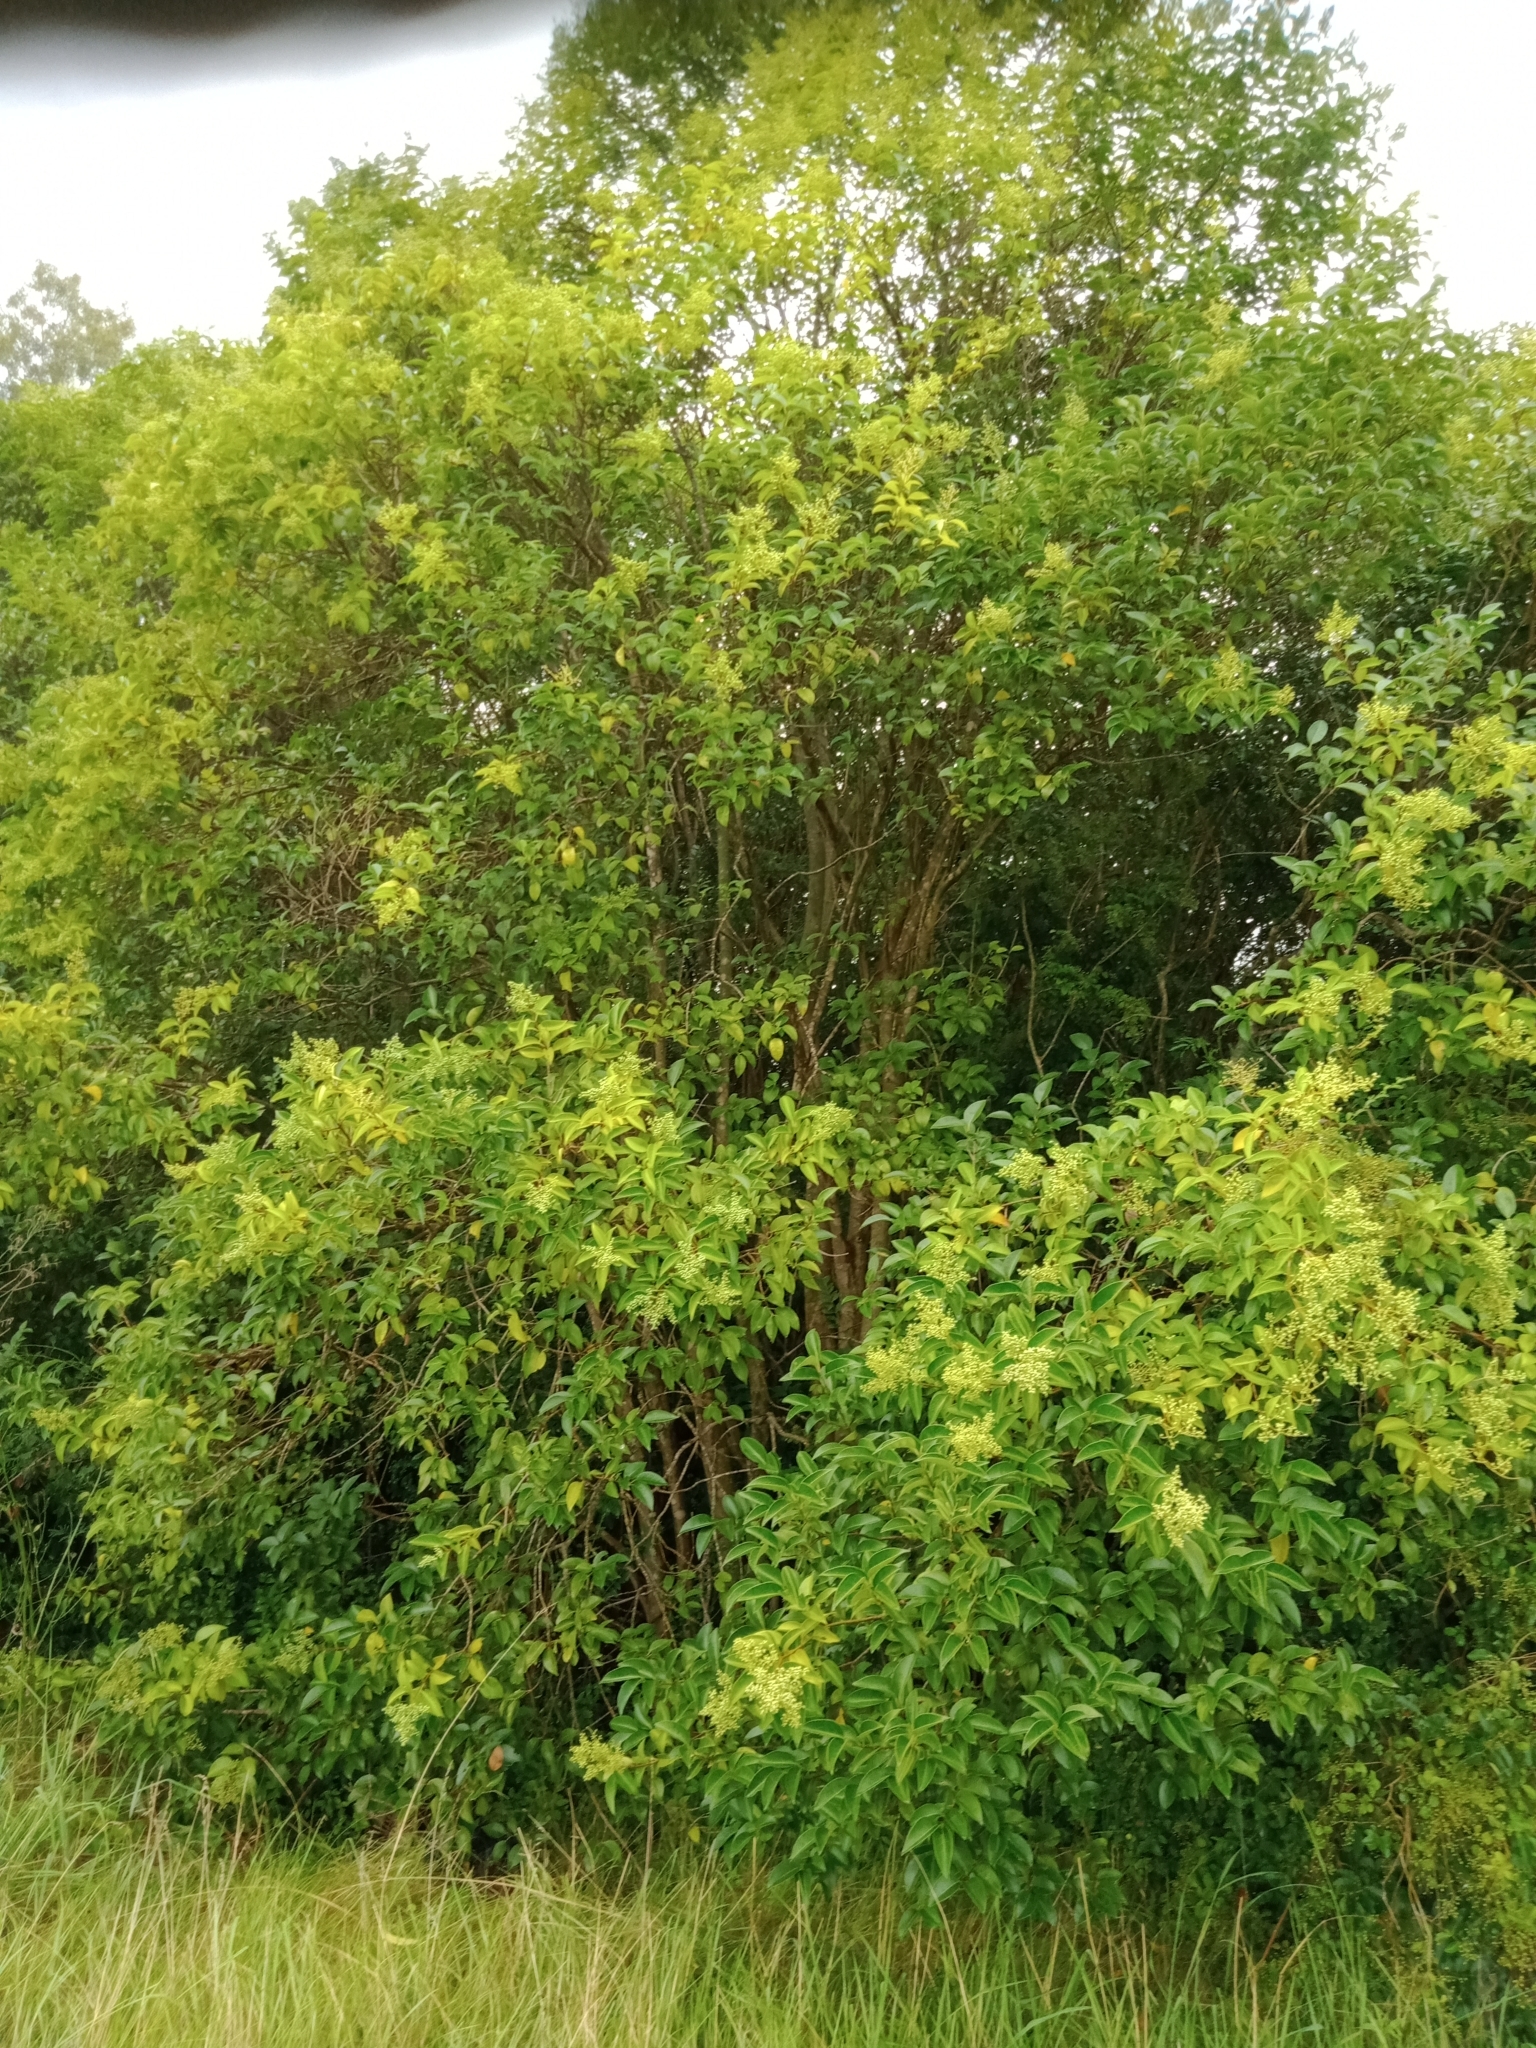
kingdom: Plantae
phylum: Tracheophyta
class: Magnoliopsida
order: Lamiales
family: Oleaceae
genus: Ligustrum
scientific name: Ligustrum lucidum
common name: Glossy privet
